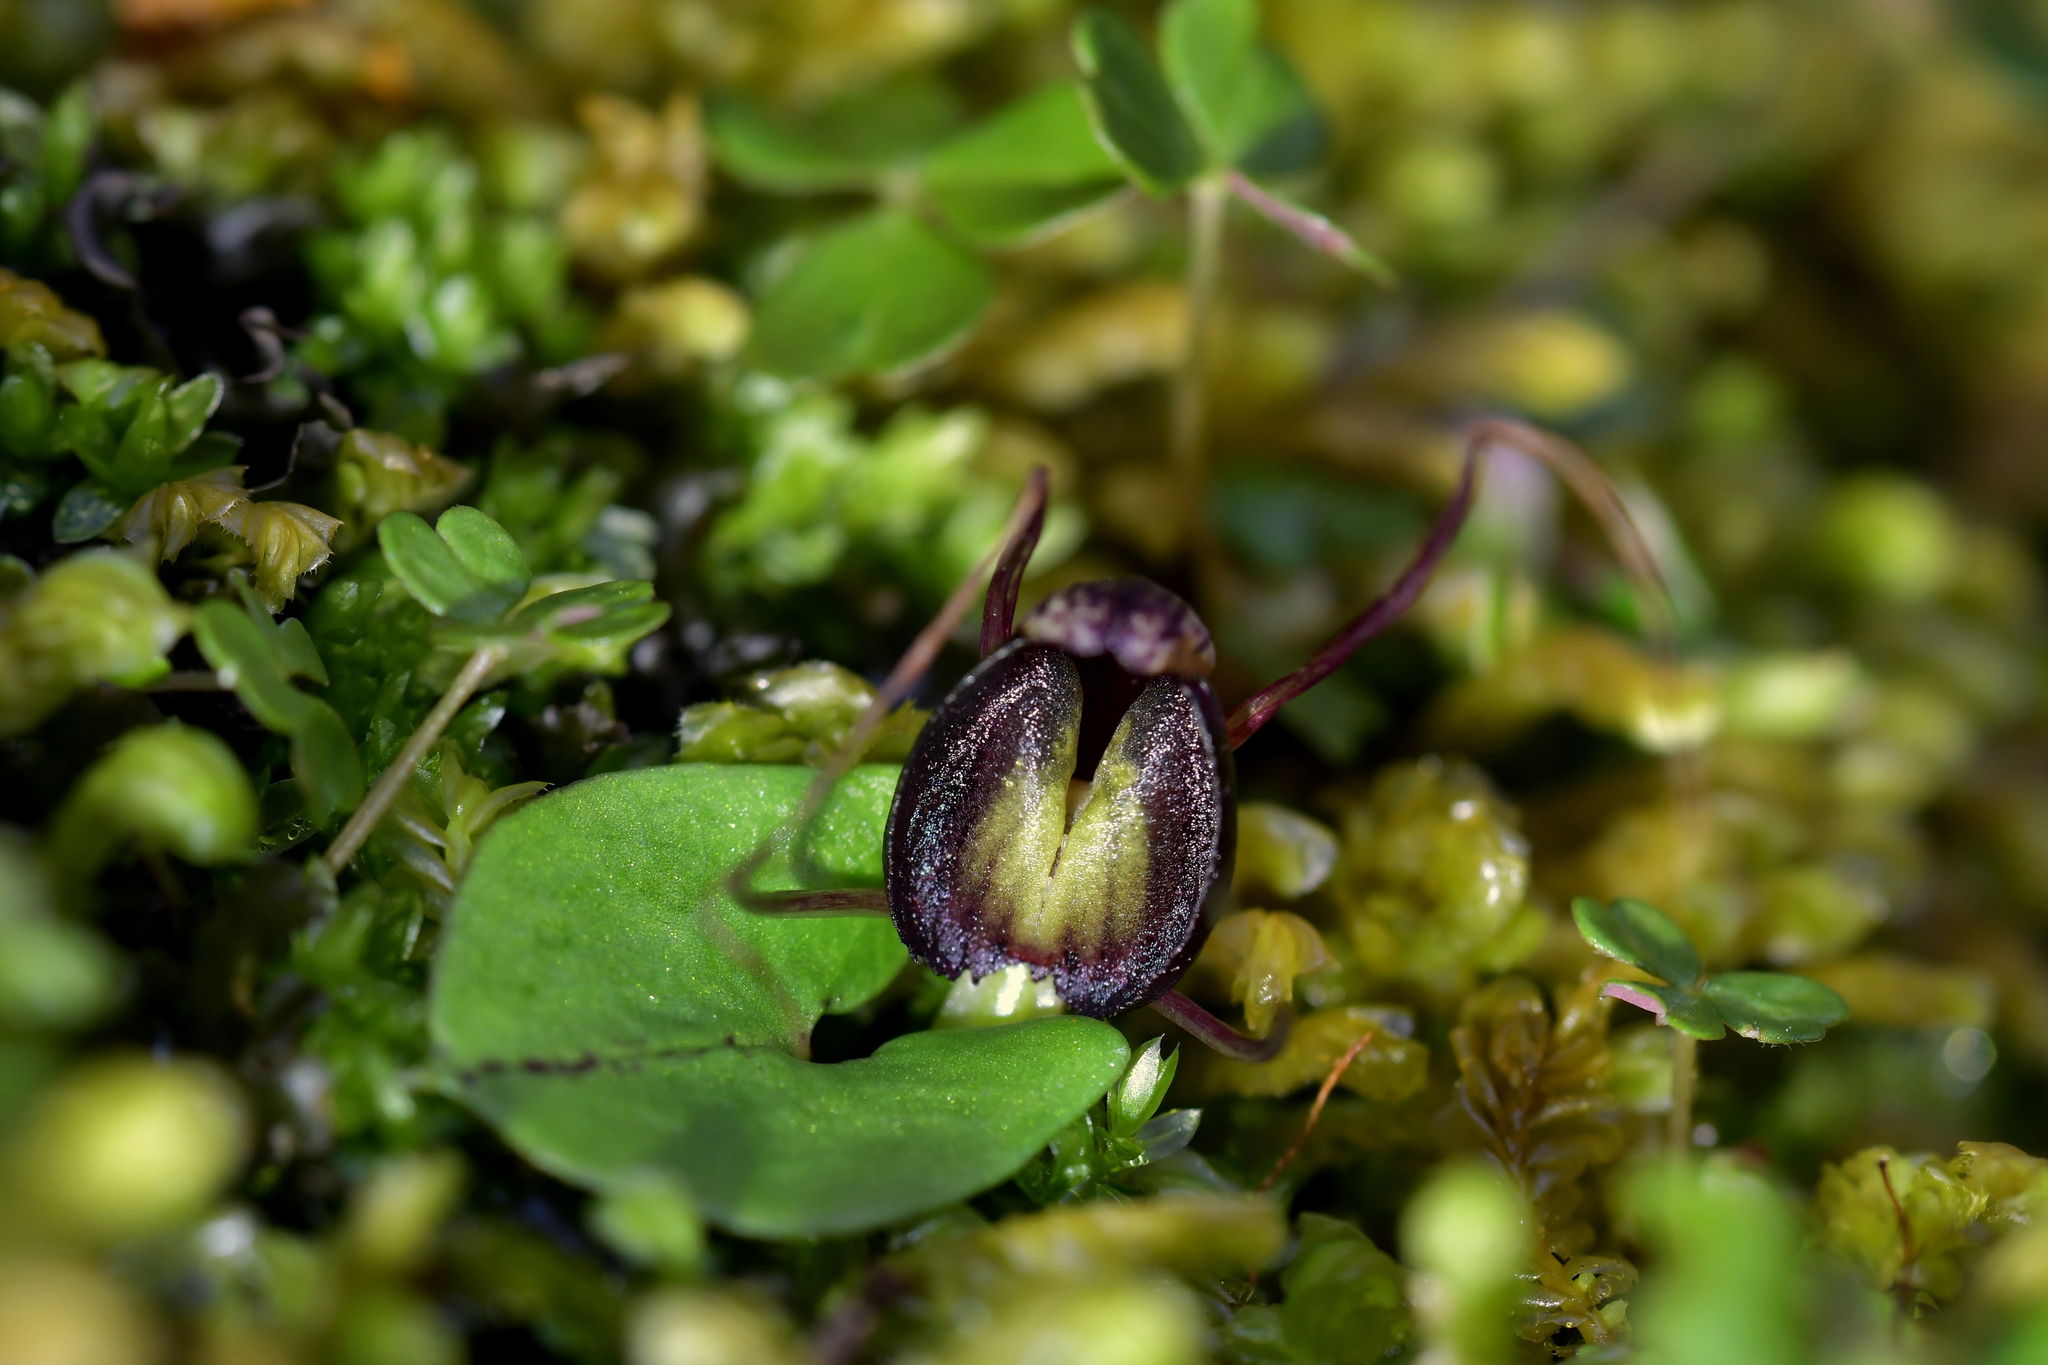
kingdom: Plantae
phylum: Tracheophyta
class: Liliopsida
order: Asparagales
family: Orchidaceae
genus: Corybas
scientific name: Corybas confusus
